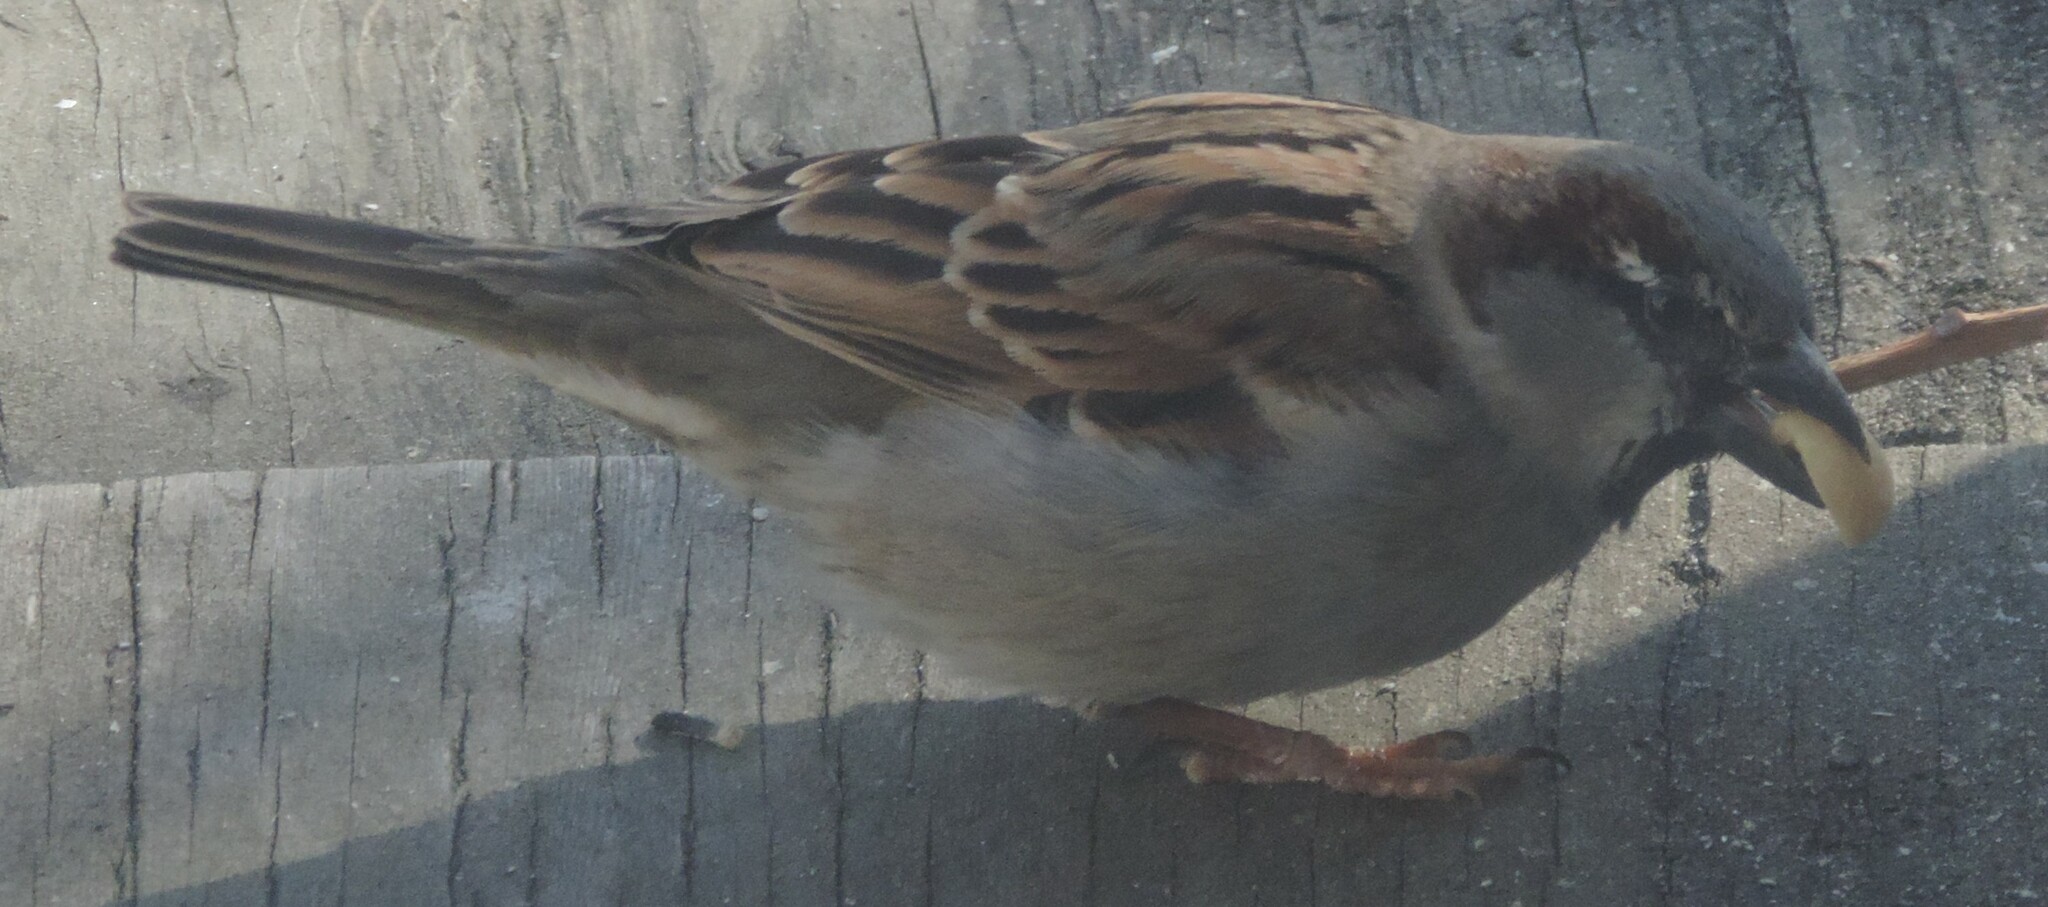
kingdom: Animalia
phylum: Chordata
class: Aves
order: Passeriformes
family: Passeridae
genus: Passer
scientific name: Passer domesticus
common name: House sparrow
